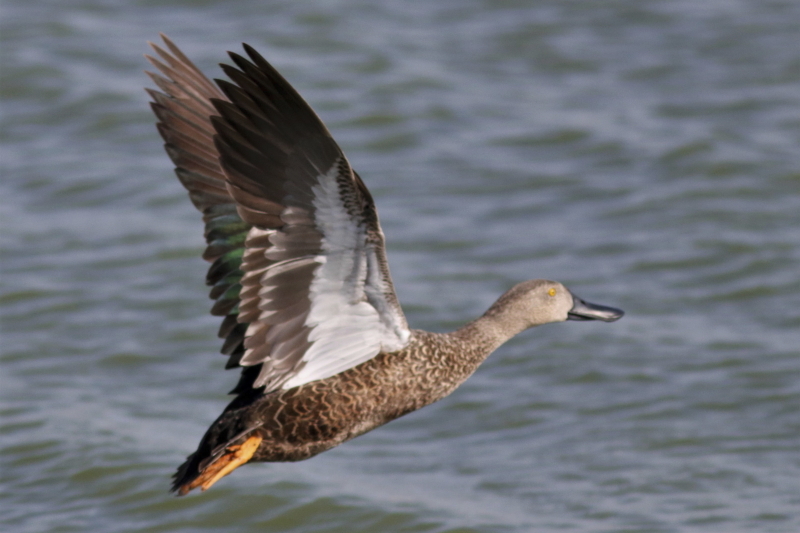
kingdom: Animalia
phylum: Chordata
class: Aves
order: Anseriformes
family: Anatidae
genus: Spatula
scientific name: Spatula smithii
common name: Cape shoveler
